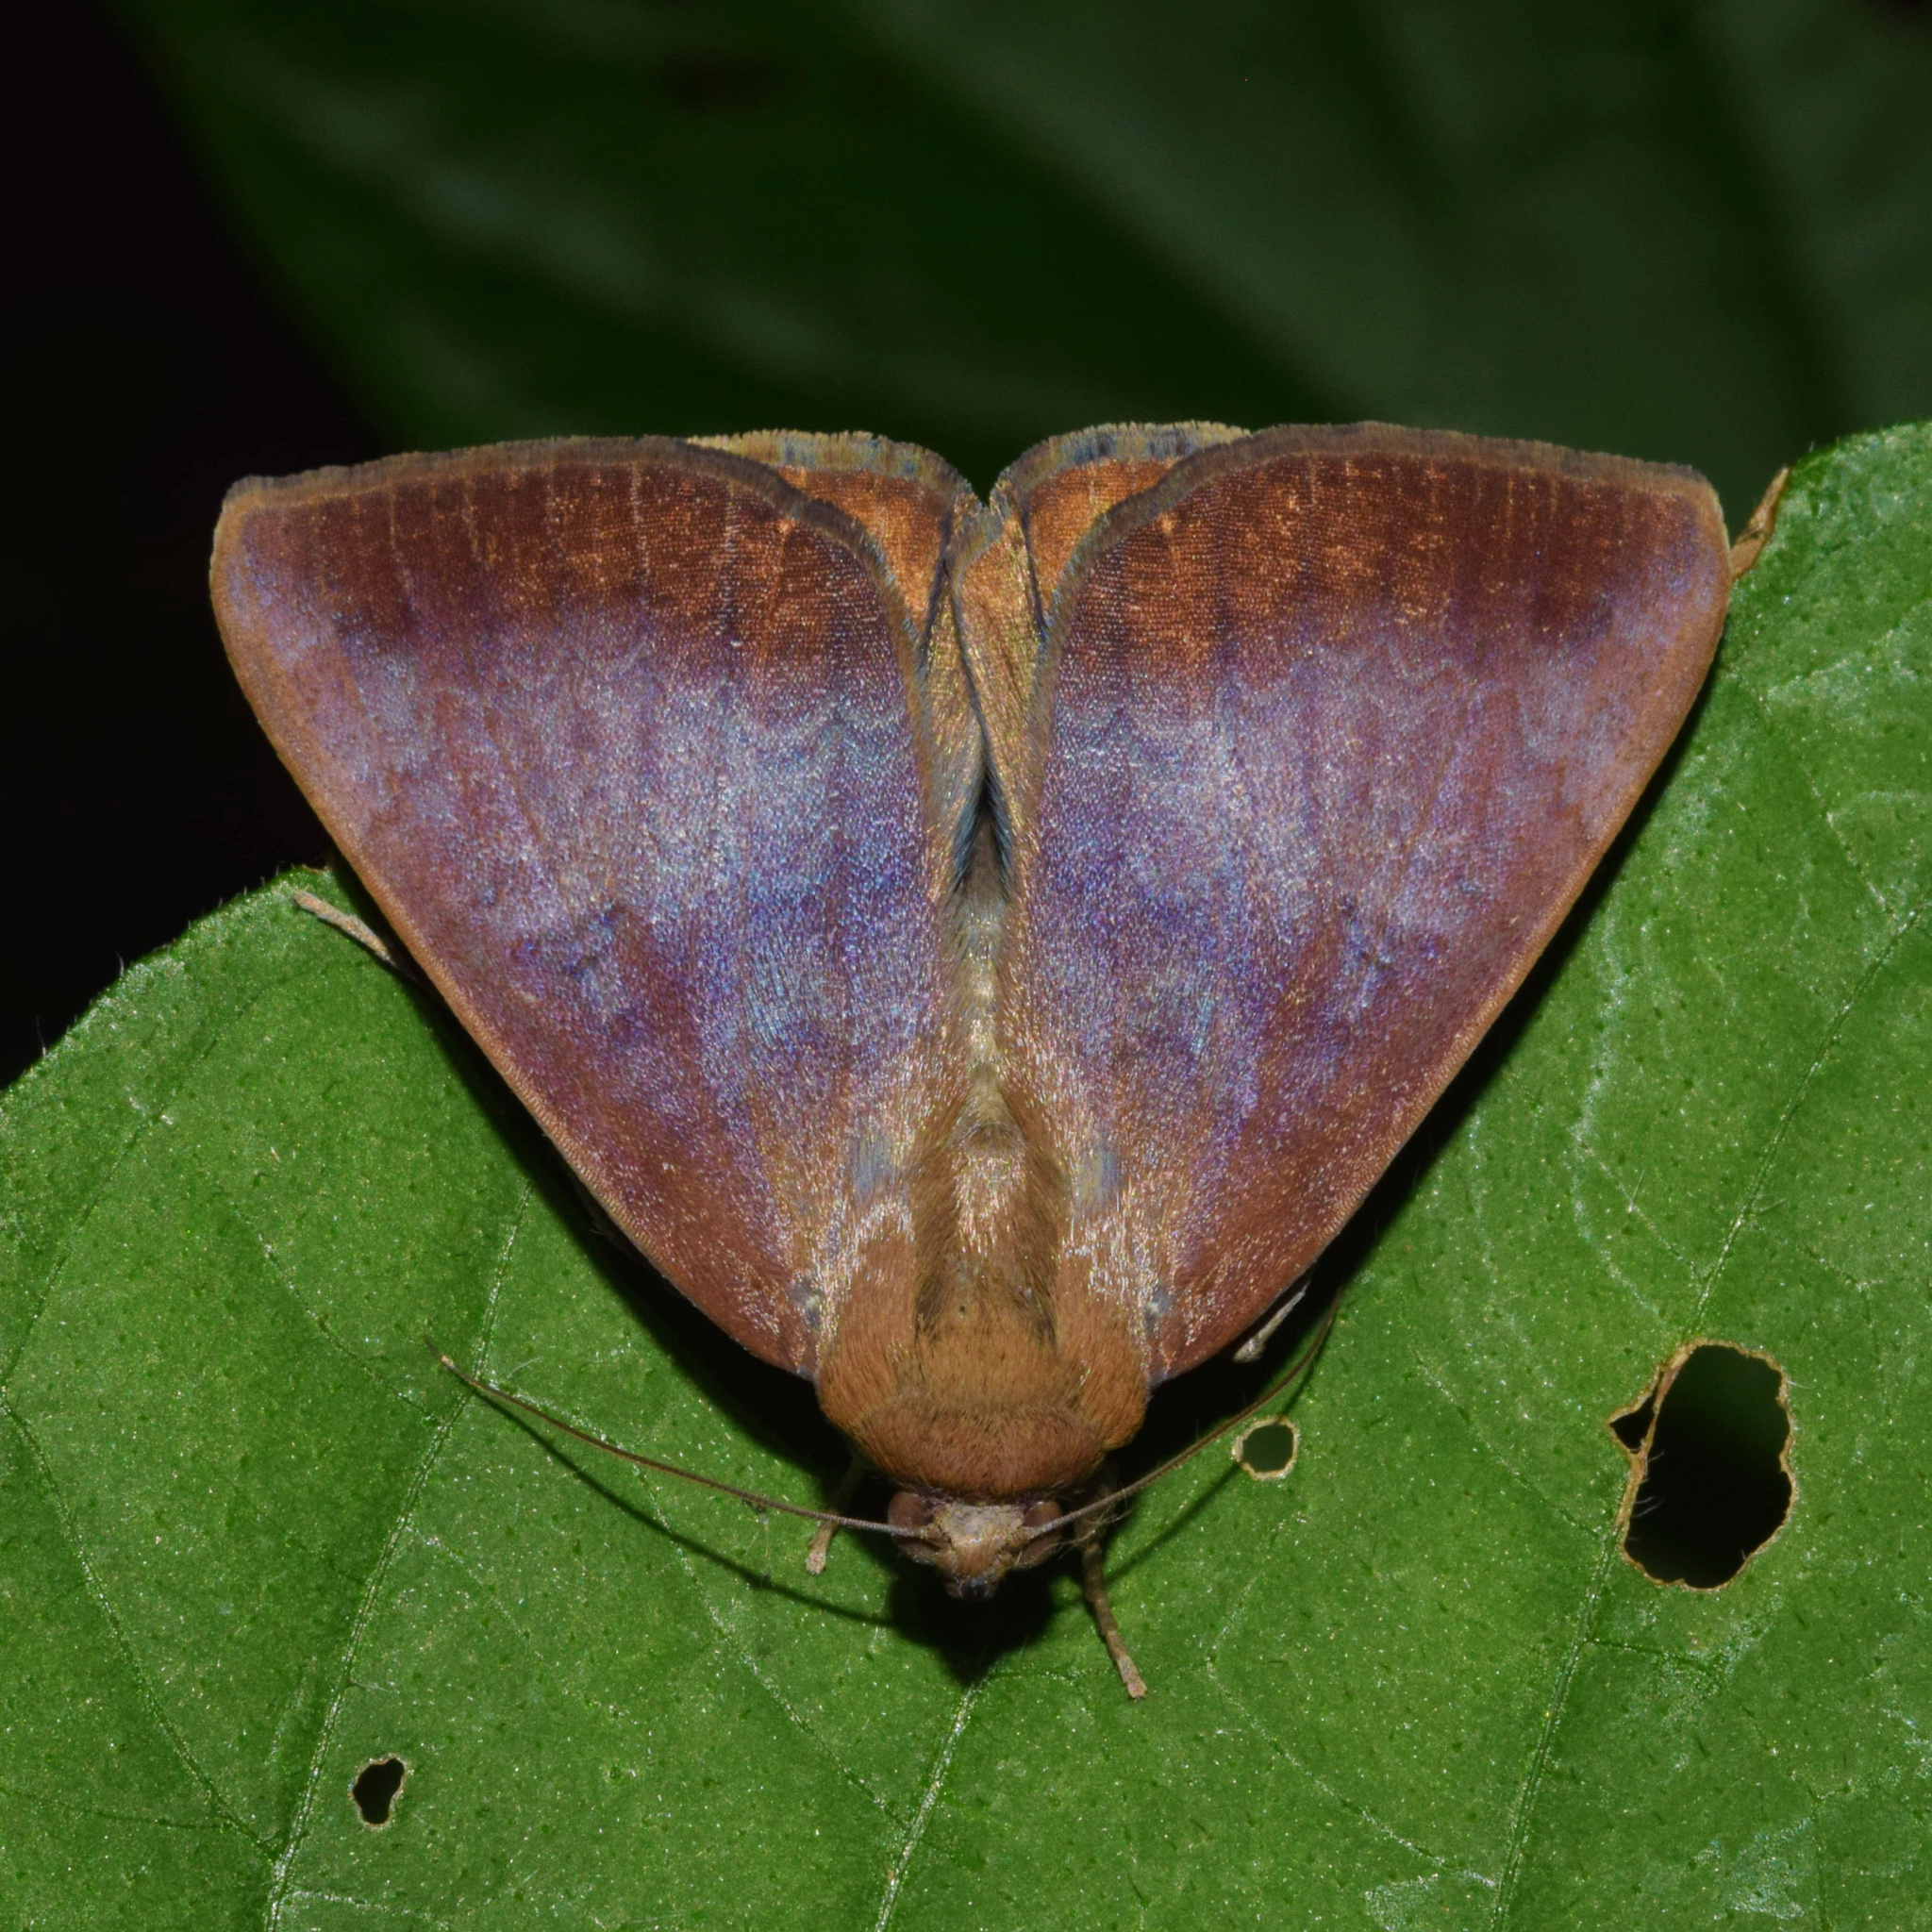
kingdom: Animalia
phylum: Arthropoda
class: Insecta
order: Lepidoptera
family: Erebidae
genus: Achaea
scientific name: Achaea praestans
